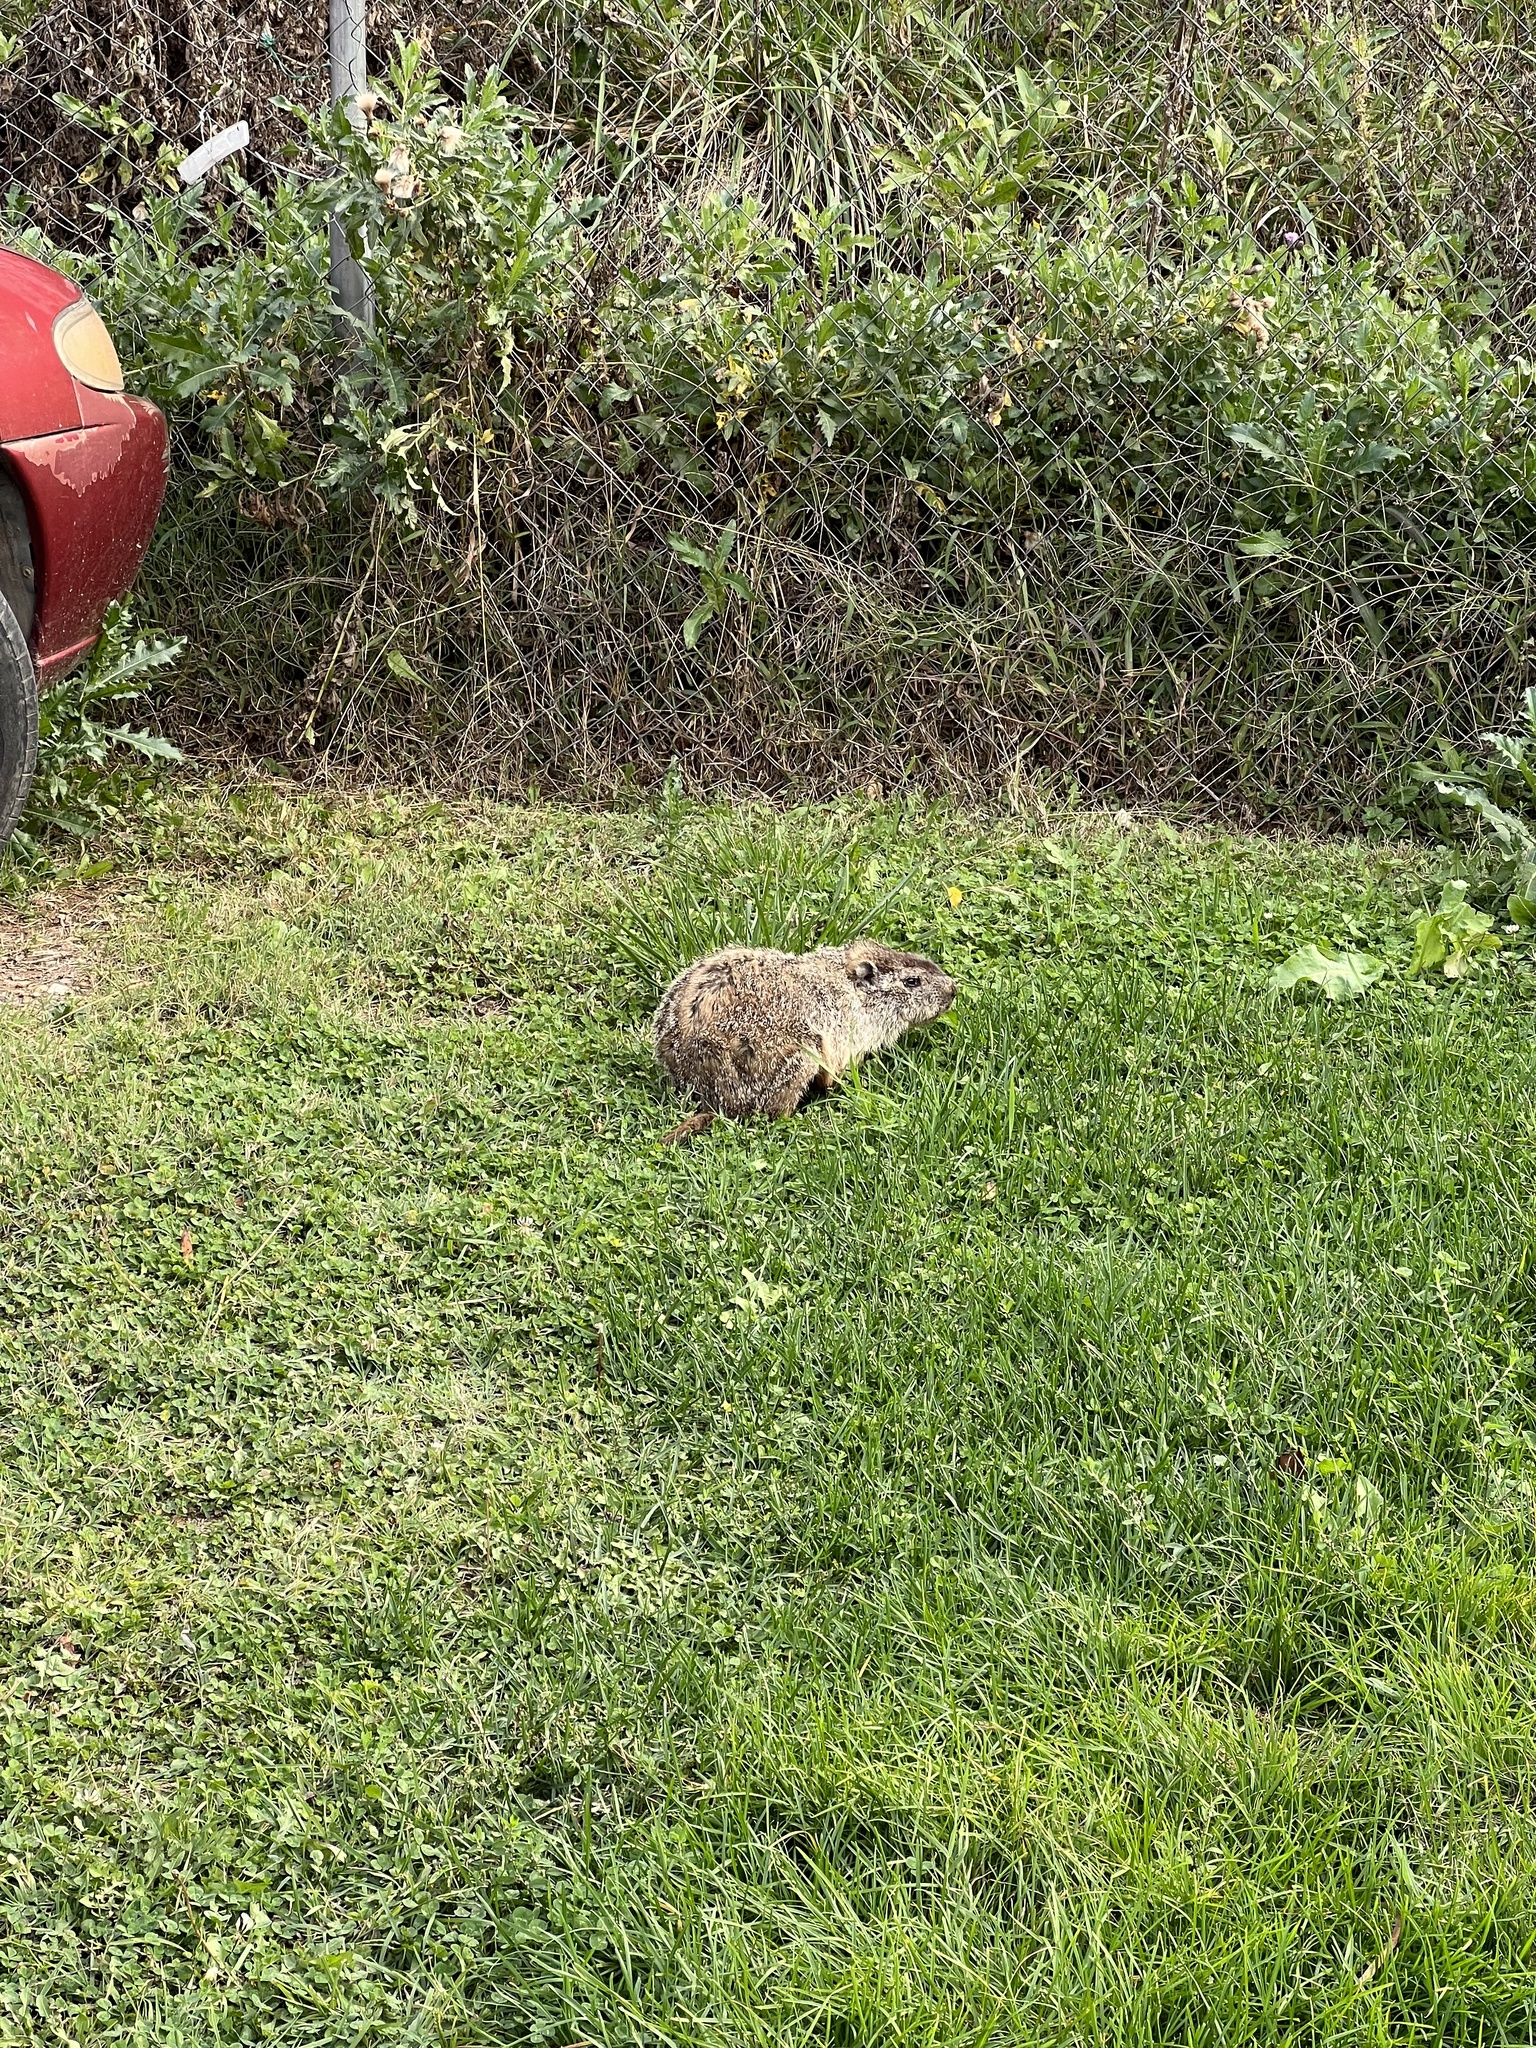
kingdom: Animalia
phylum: Chordata
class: Mammalia
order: Rodentia
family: Sciuridae
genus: Marmota
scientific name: Marmota monax
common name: Groundhog
